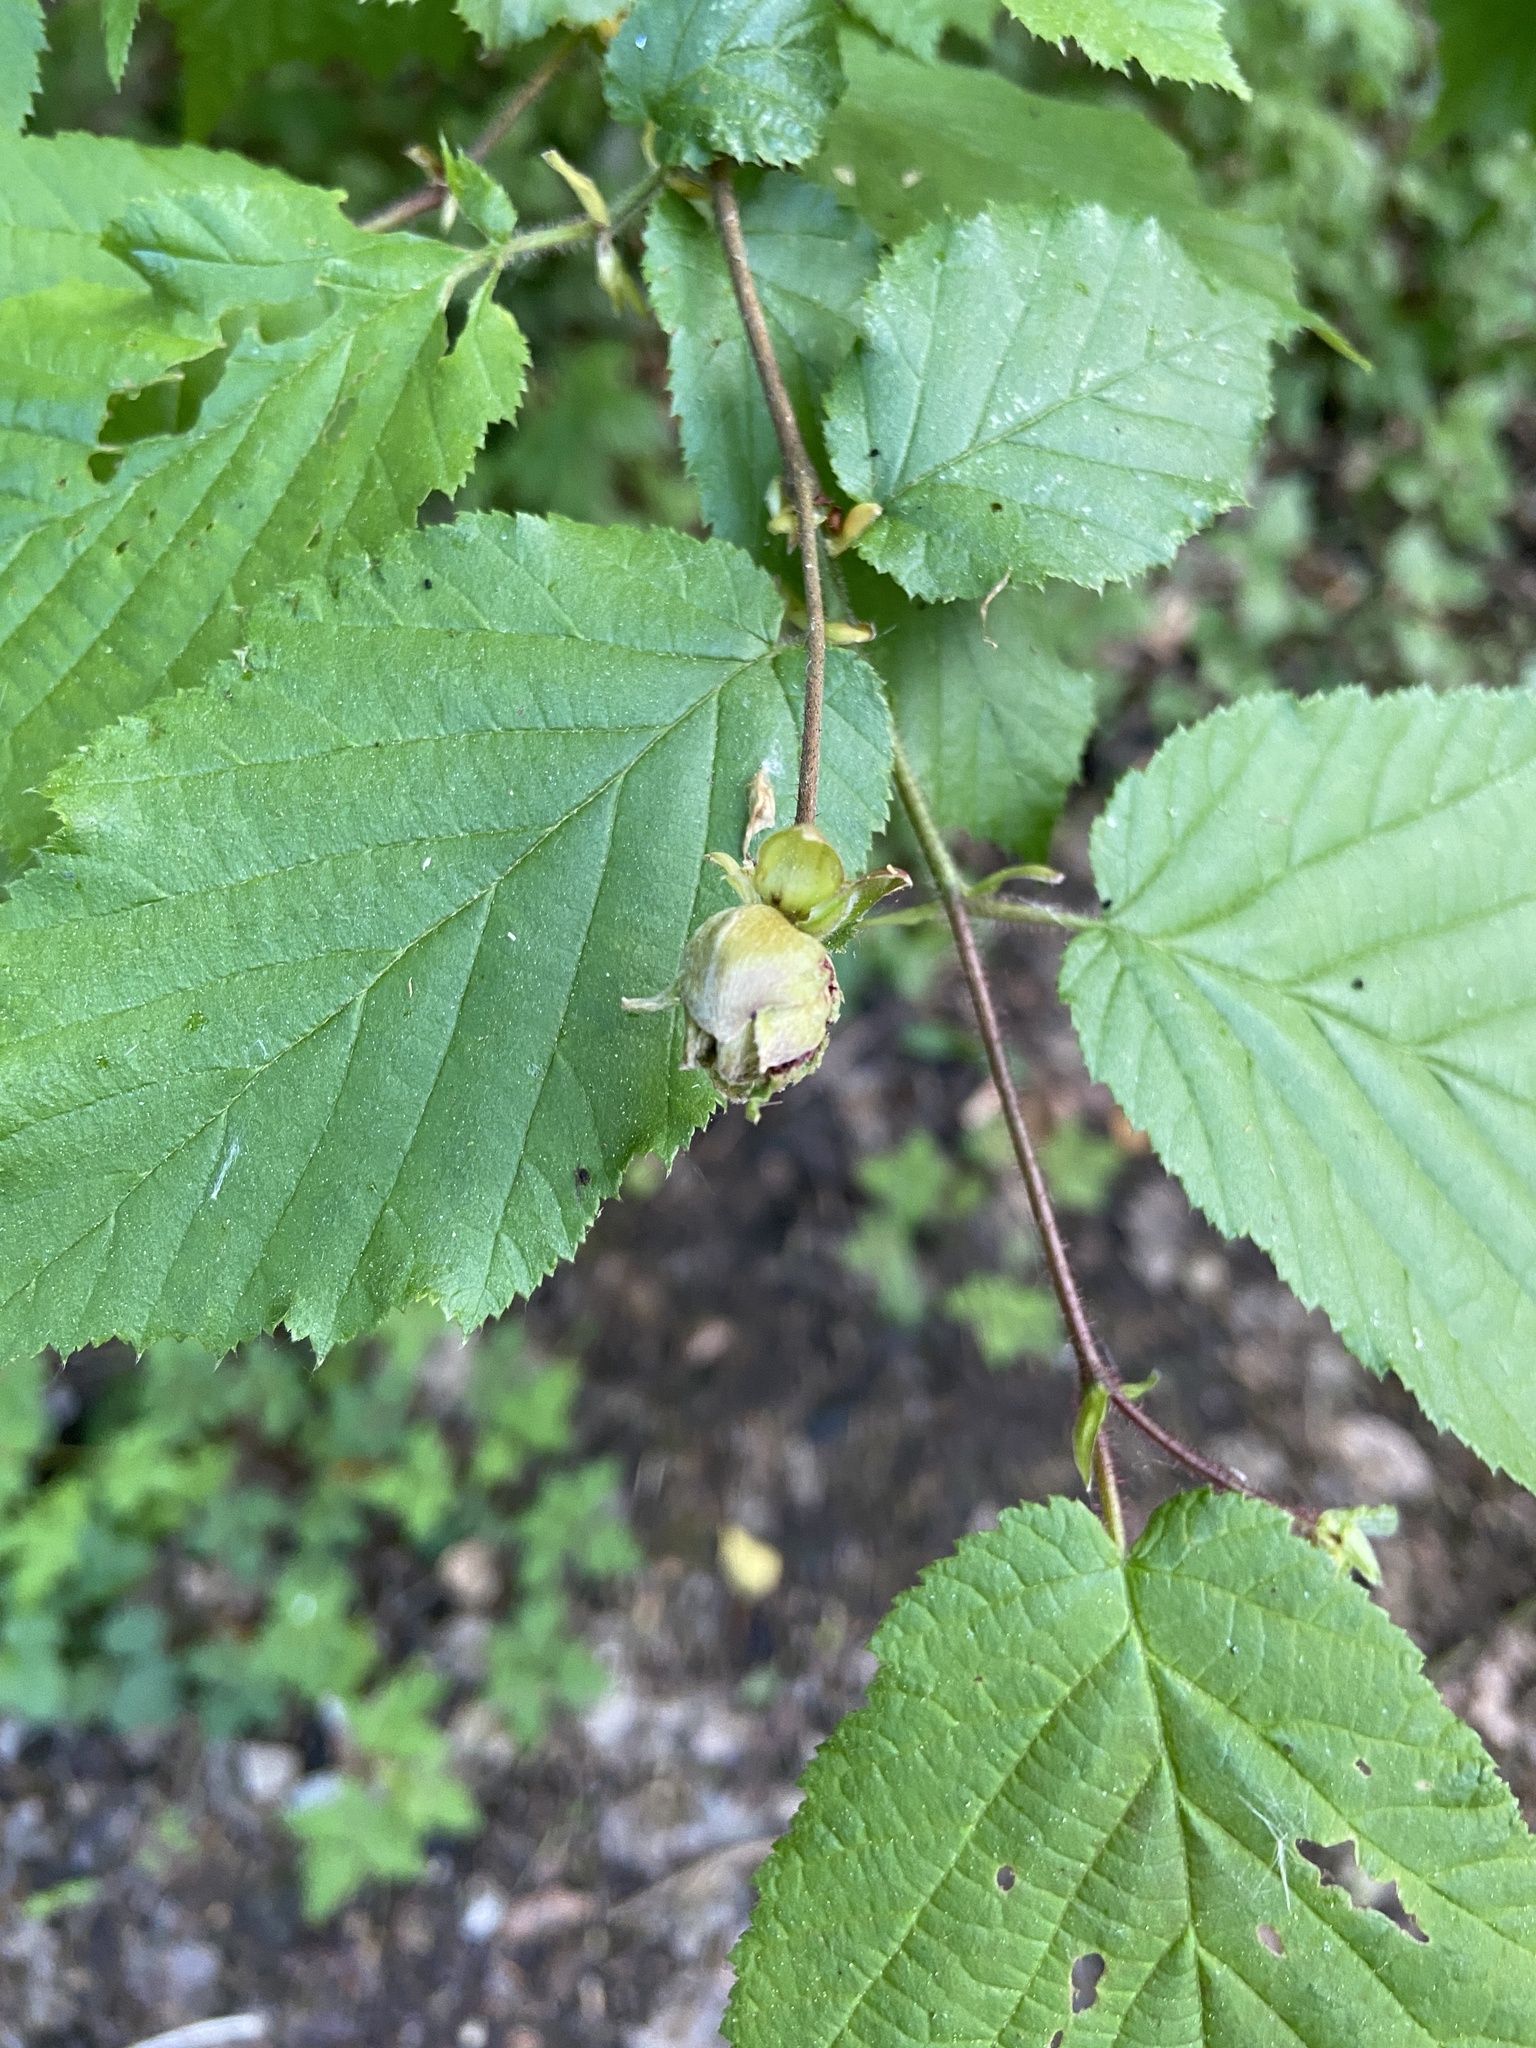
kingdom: Animalia
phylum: Arthropoda
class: Arachnida
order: Trombidiformes
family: Phytoptidae
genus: Phytoptus
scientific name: Phytoptus avellanae
